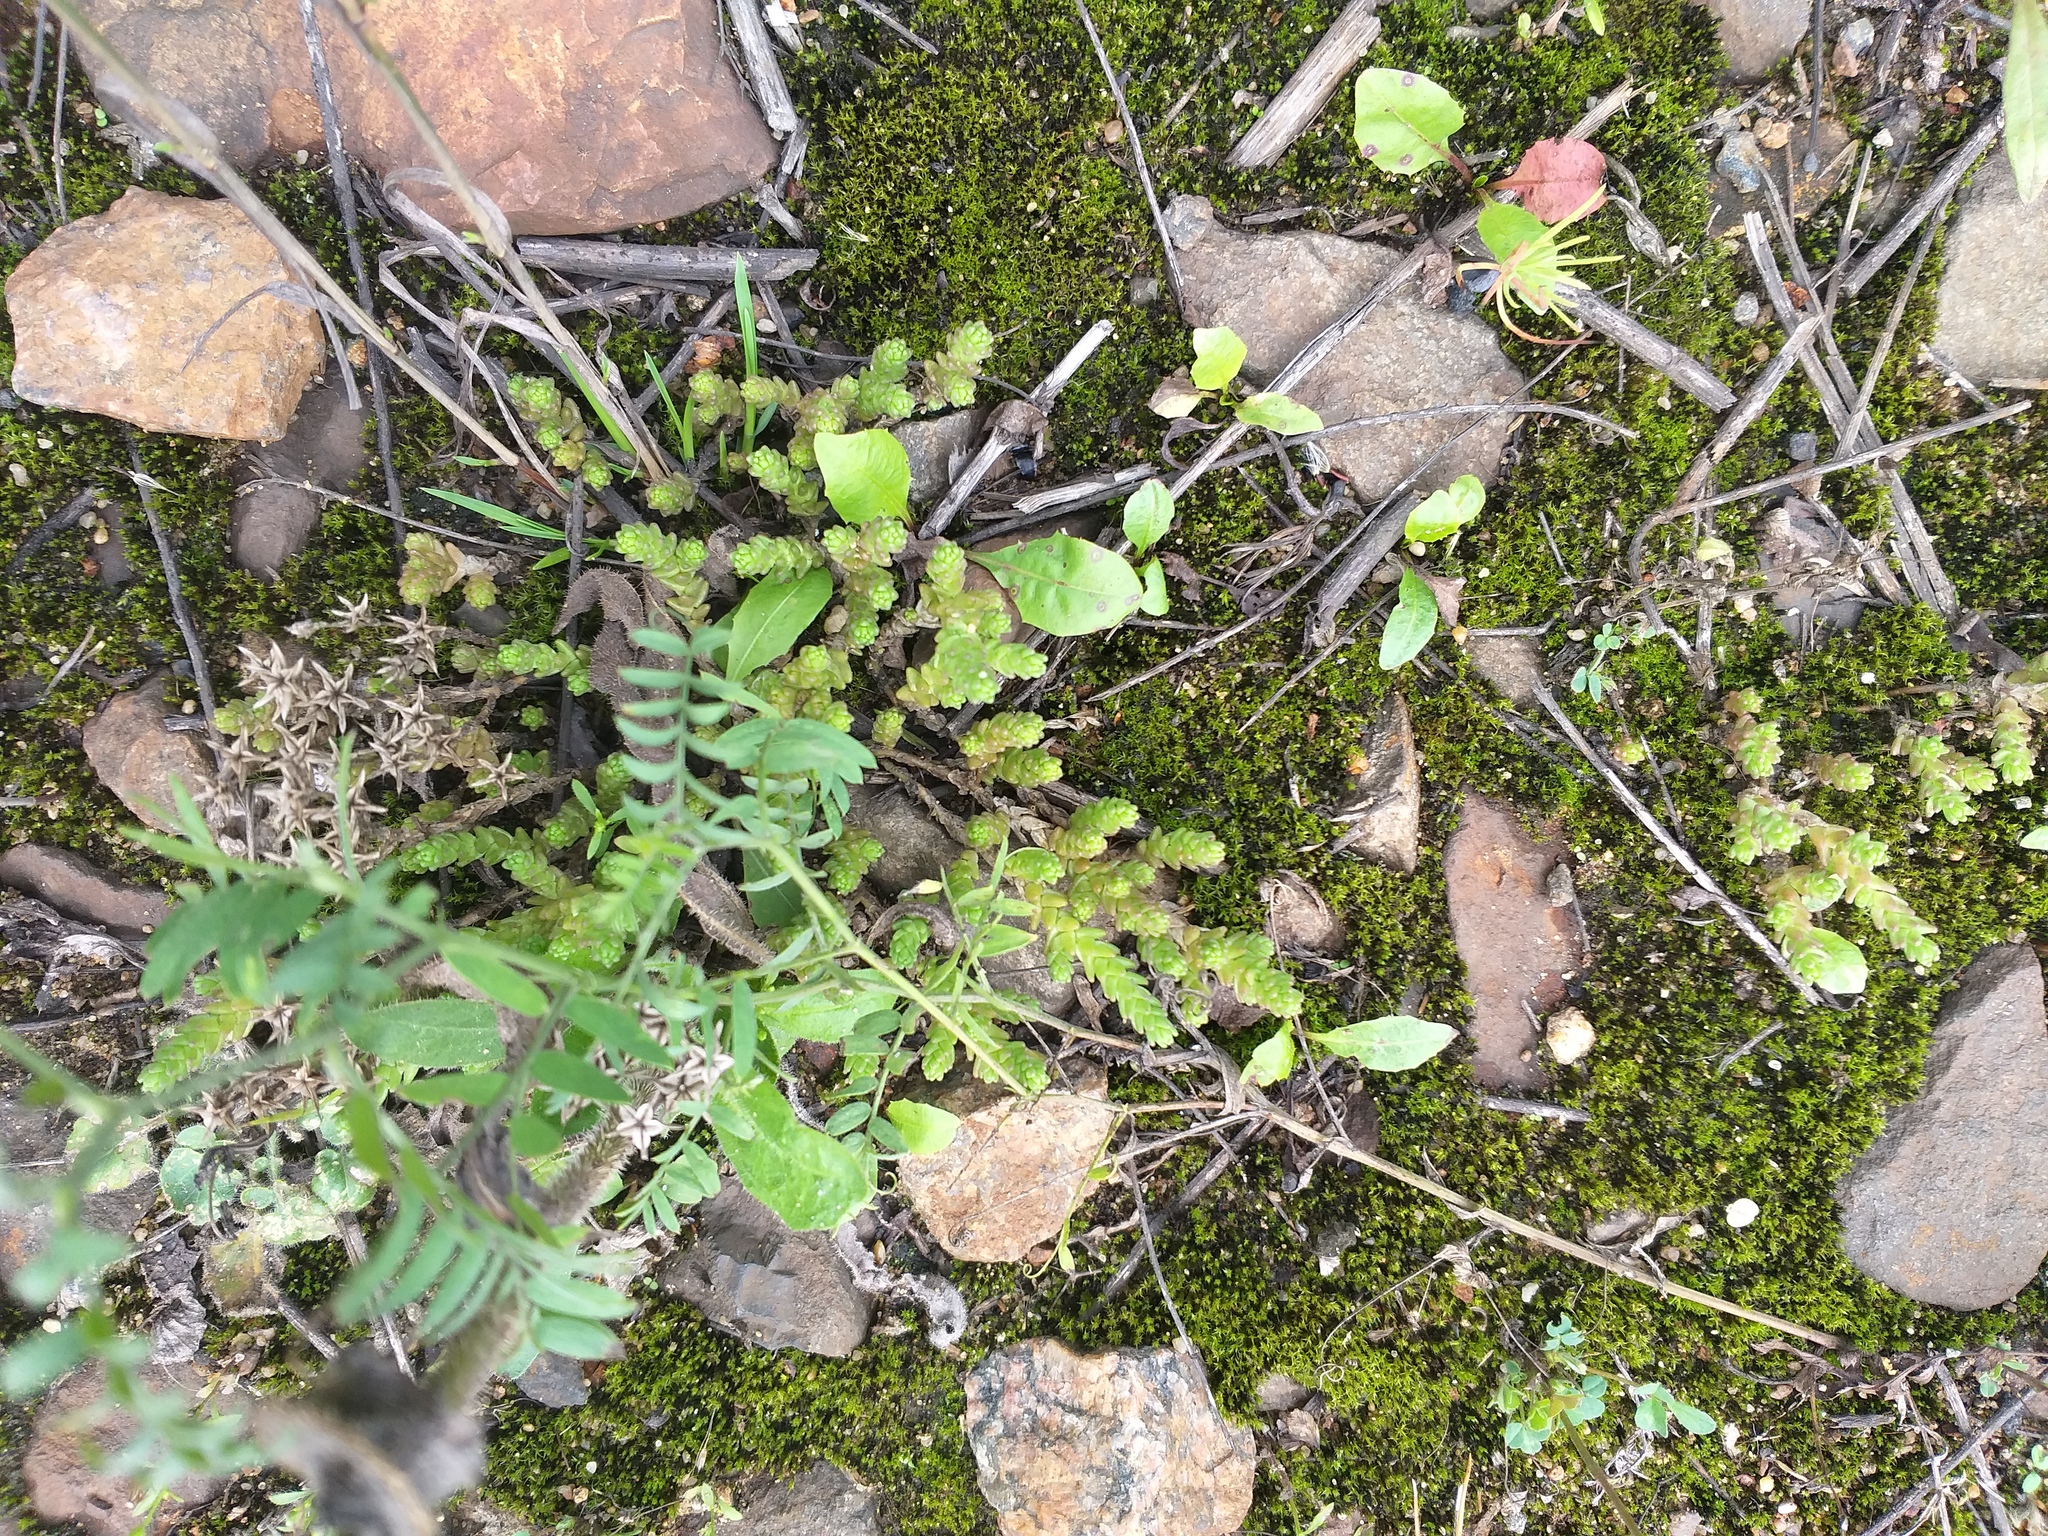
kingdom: Plantae
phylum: Tracheophyta
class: Magnoliopsida
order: Saxifragales
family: Crassulaceae
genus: Sedum
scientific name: Sedum acre
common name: Biting stonecrop
